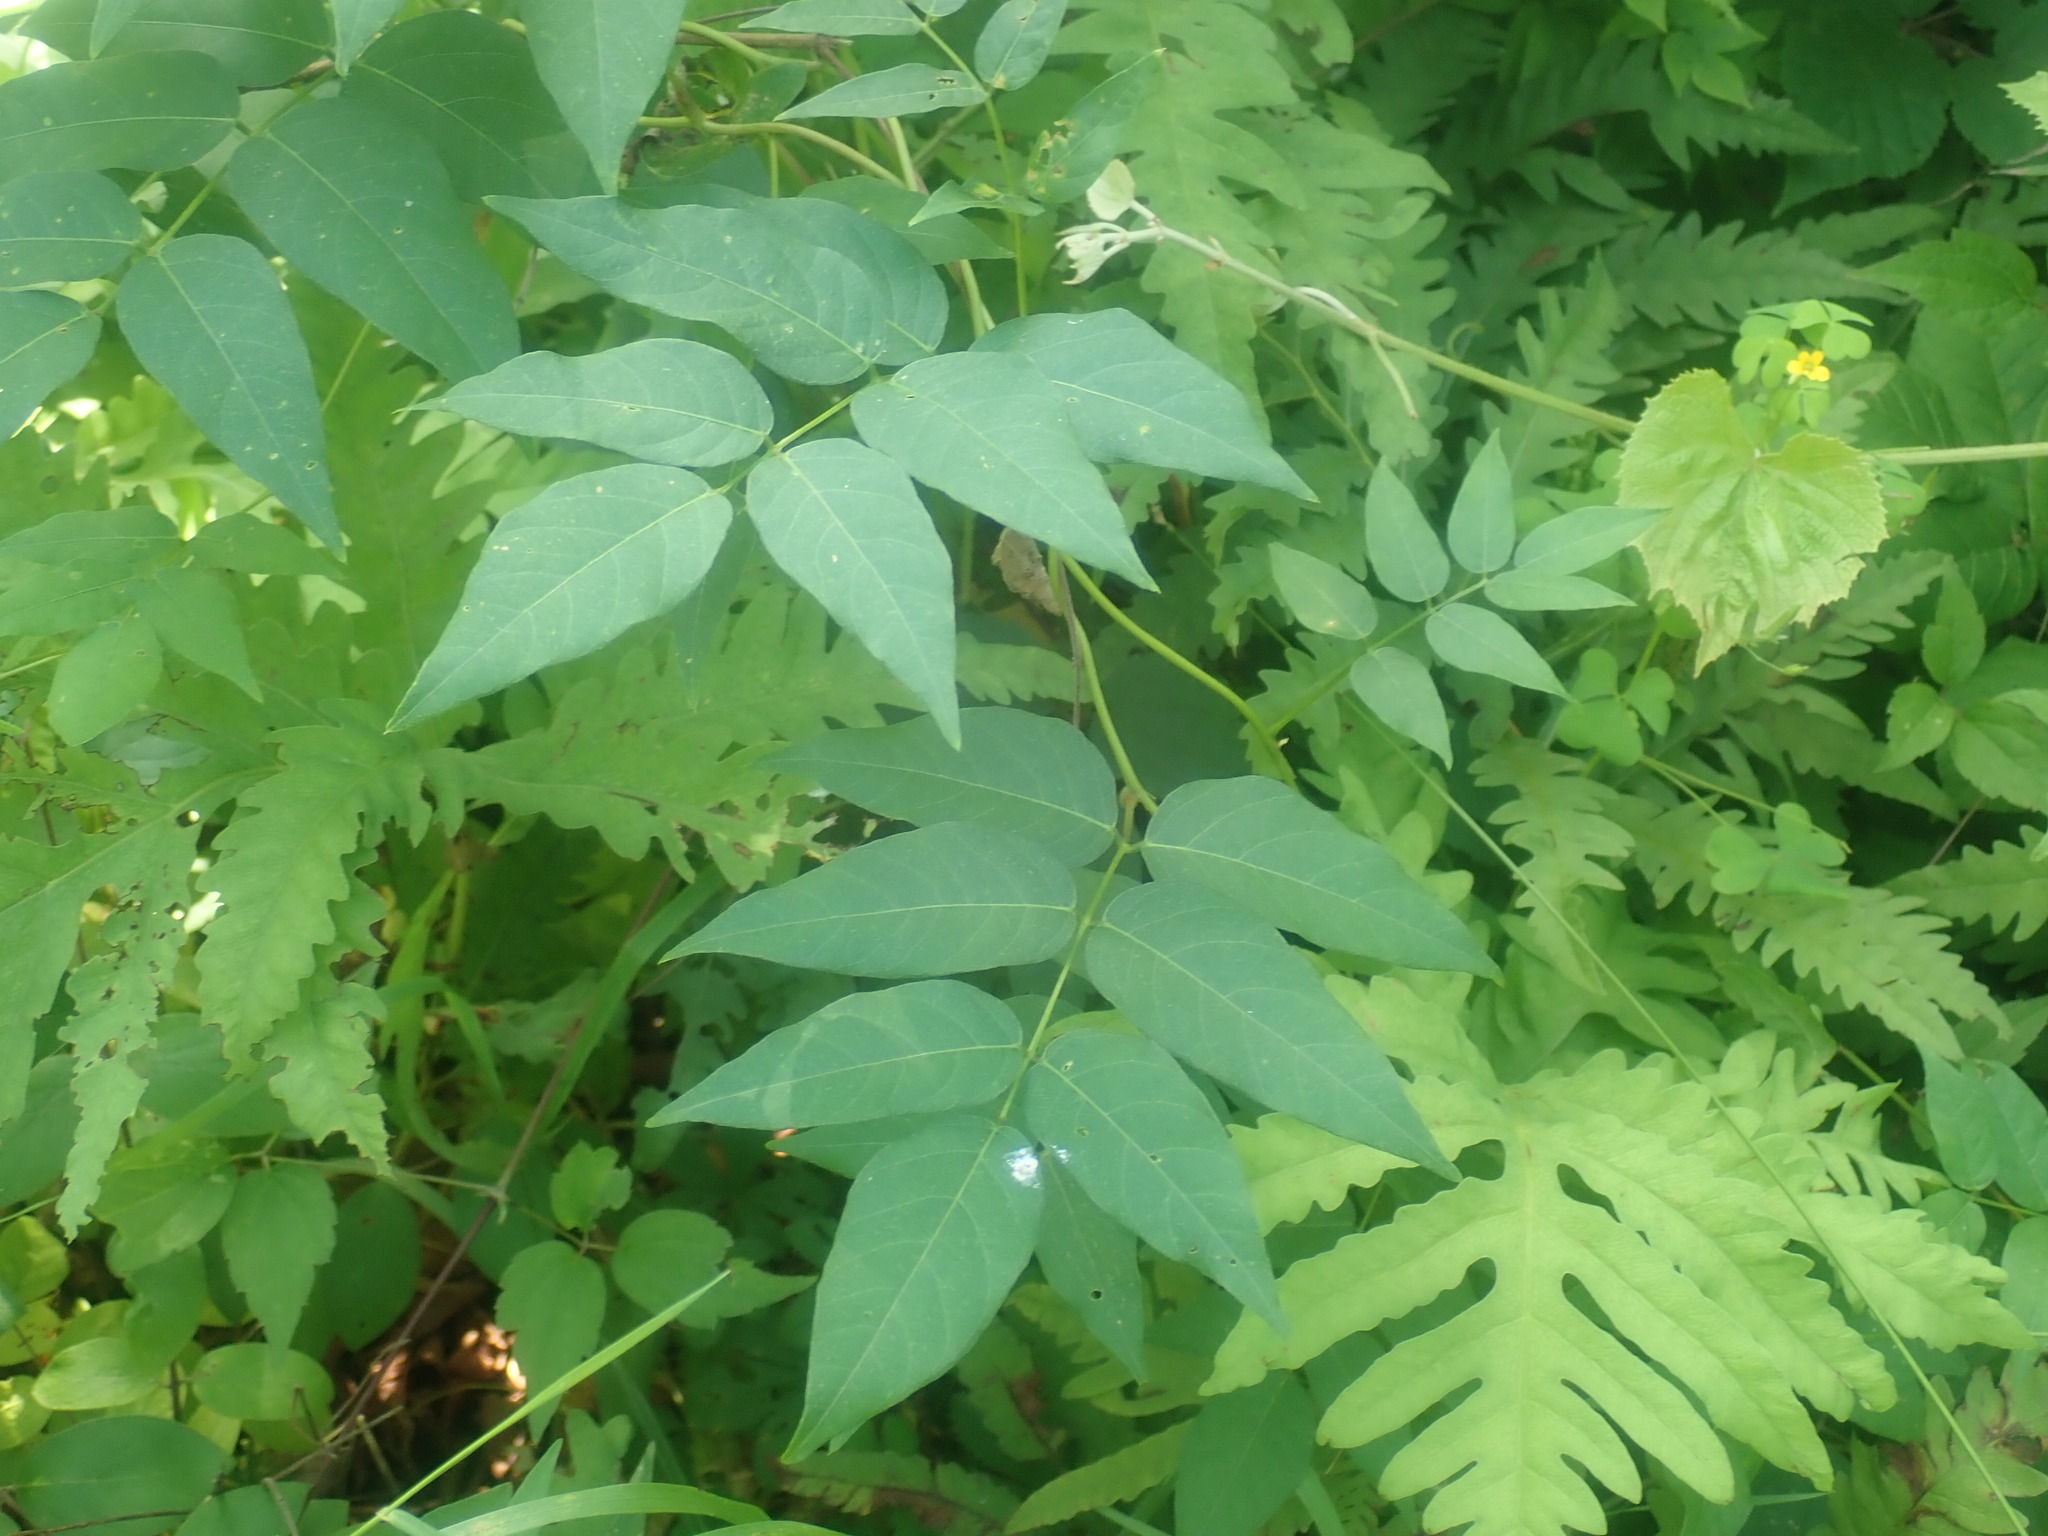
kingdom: Plantae
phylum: Tracheophyta
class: Magnoliopsida
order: Fabales
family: Fabaceae
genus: Apios
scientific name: Apios americana
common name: American potato-bean
